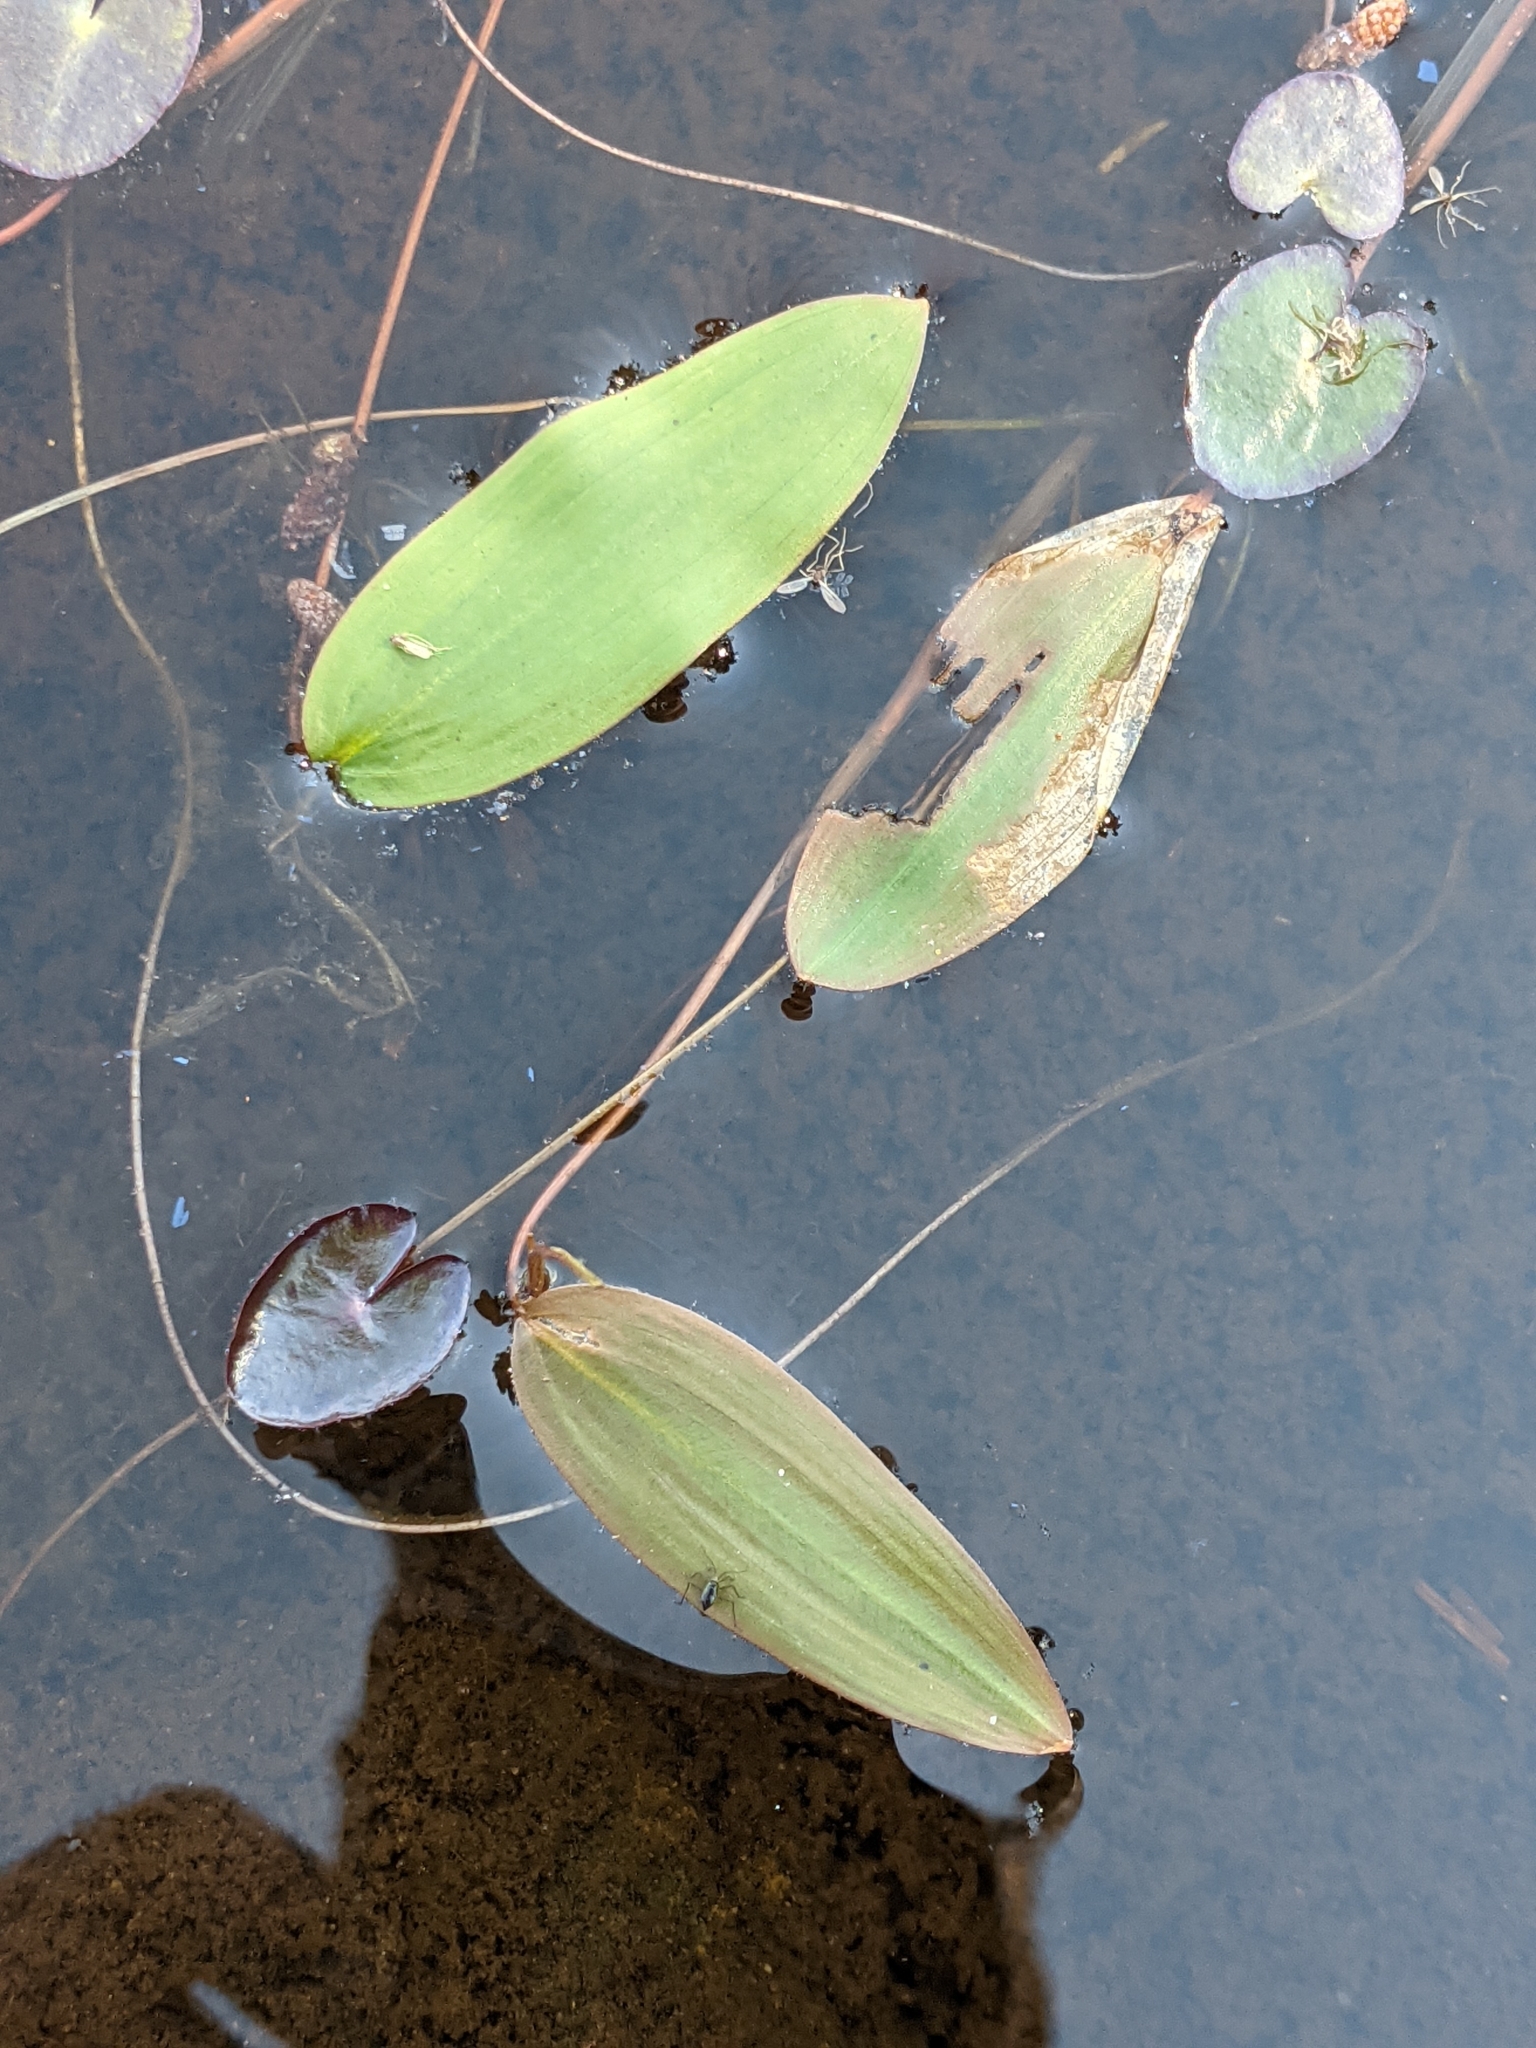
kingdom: Plantae
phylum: Tracheophyta
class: Liliopsida
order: Alismatales
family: Potamogetonaceae
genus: Potamogeton
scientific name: Potamogeton natans
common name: Broad-leaved pondweed
